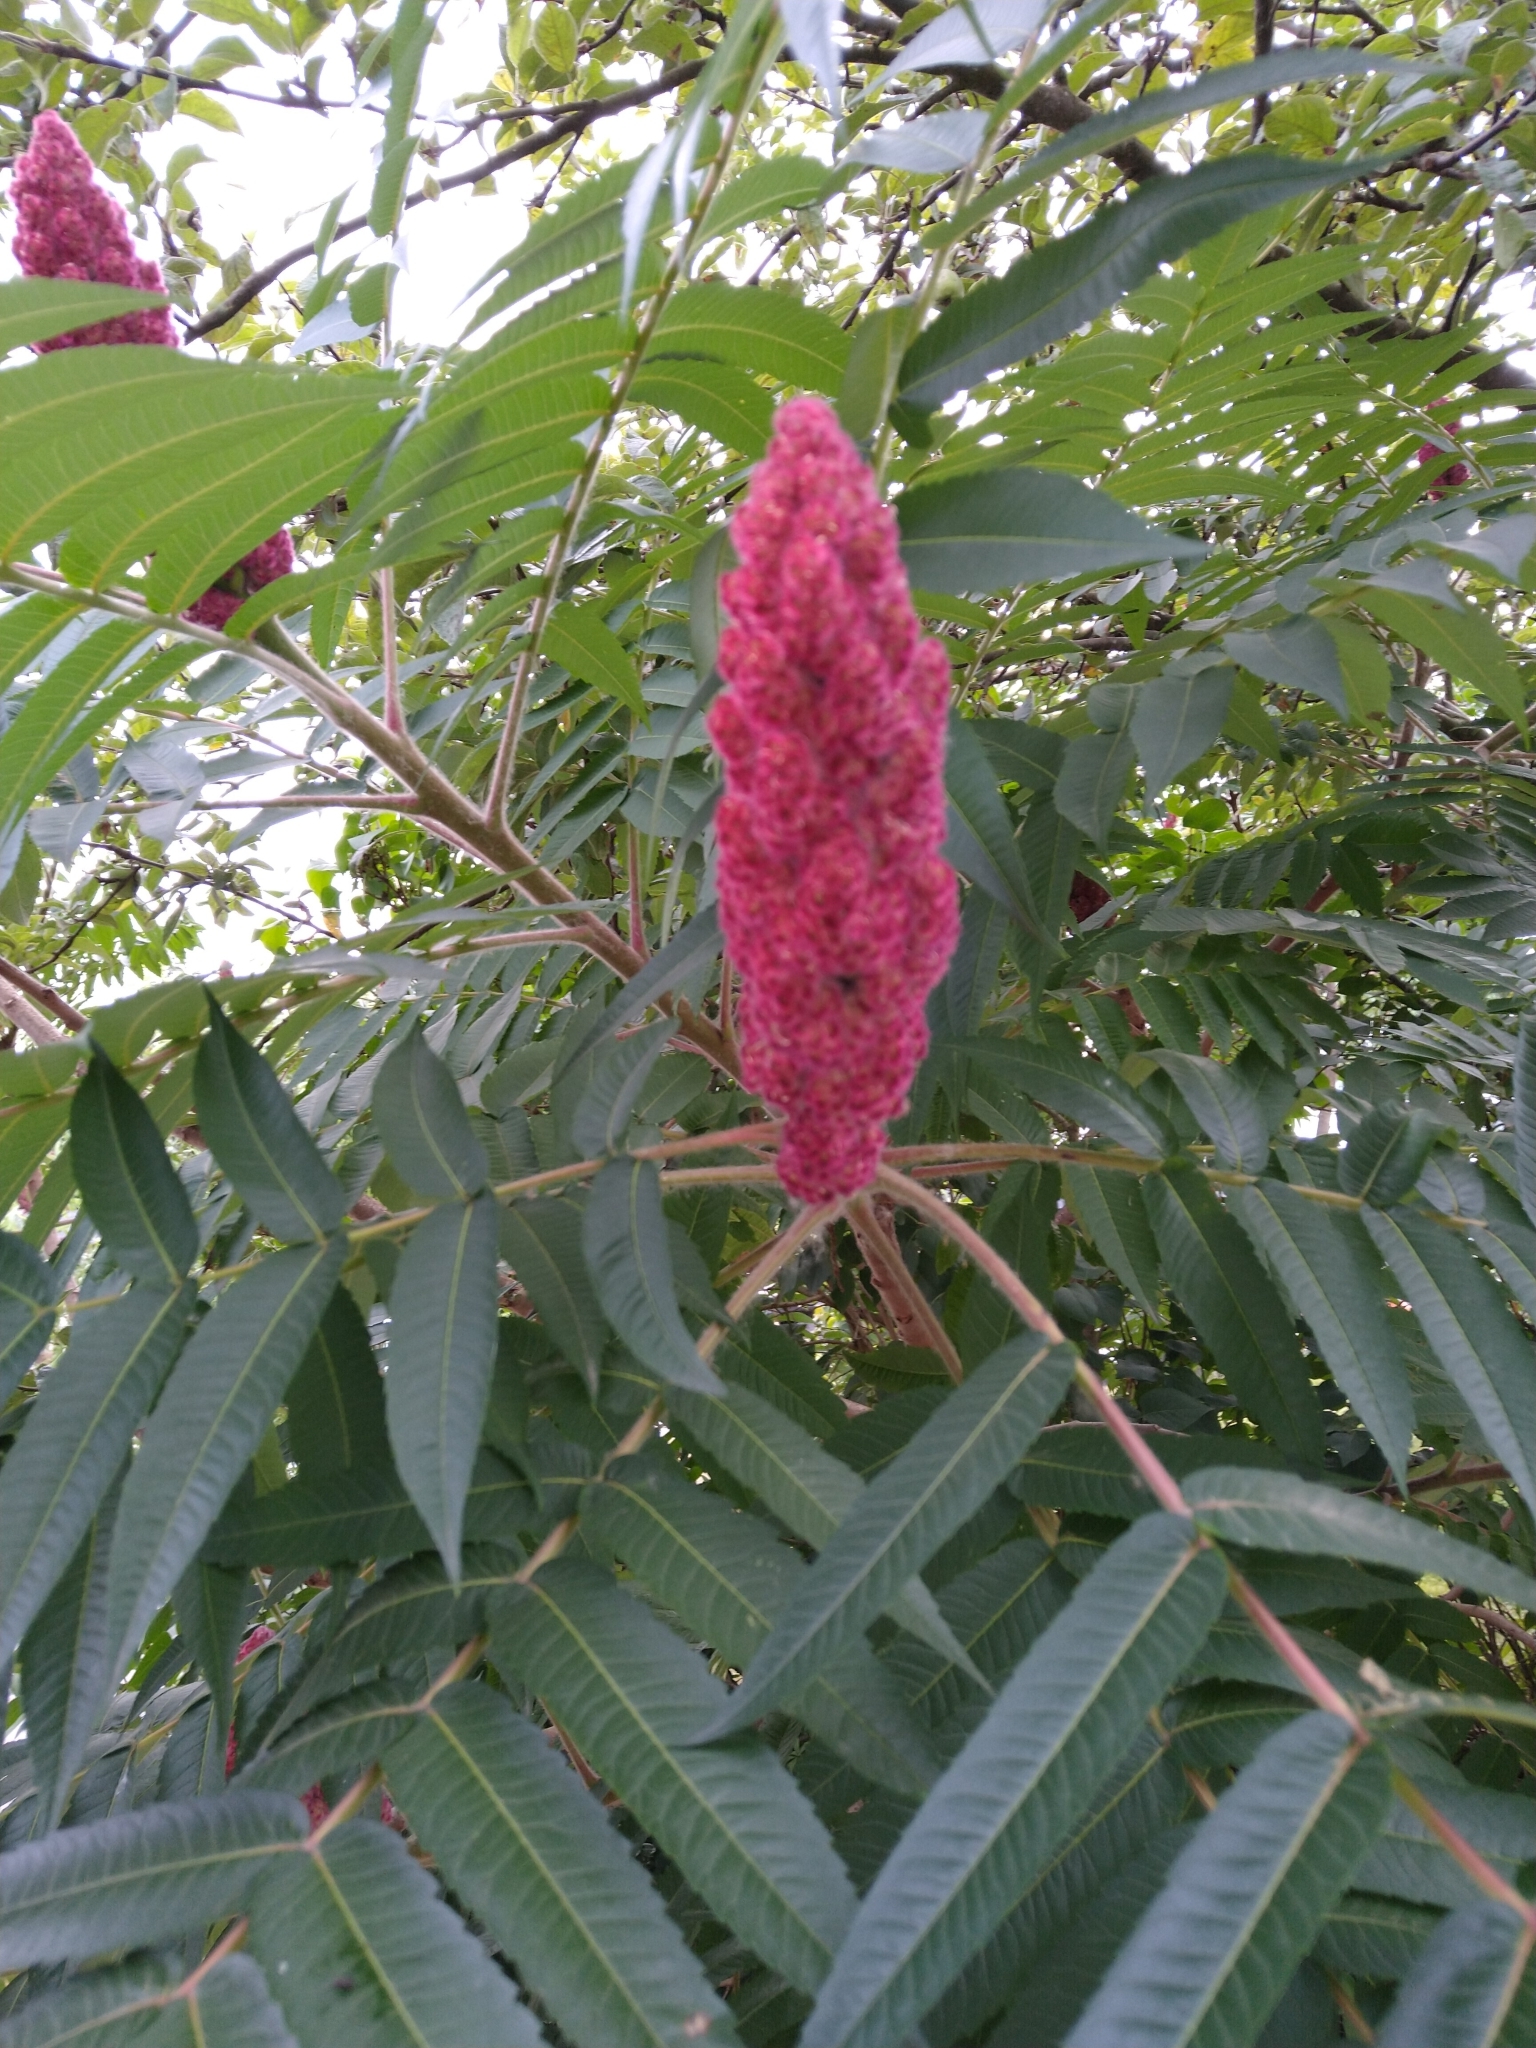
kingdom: Plantae
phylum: Tracheophyta
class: Magnoliopsida
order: Sapindales
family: Anacardiaceae
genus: Rhus
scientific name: Rhus typhina
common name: Staghorn sumac
